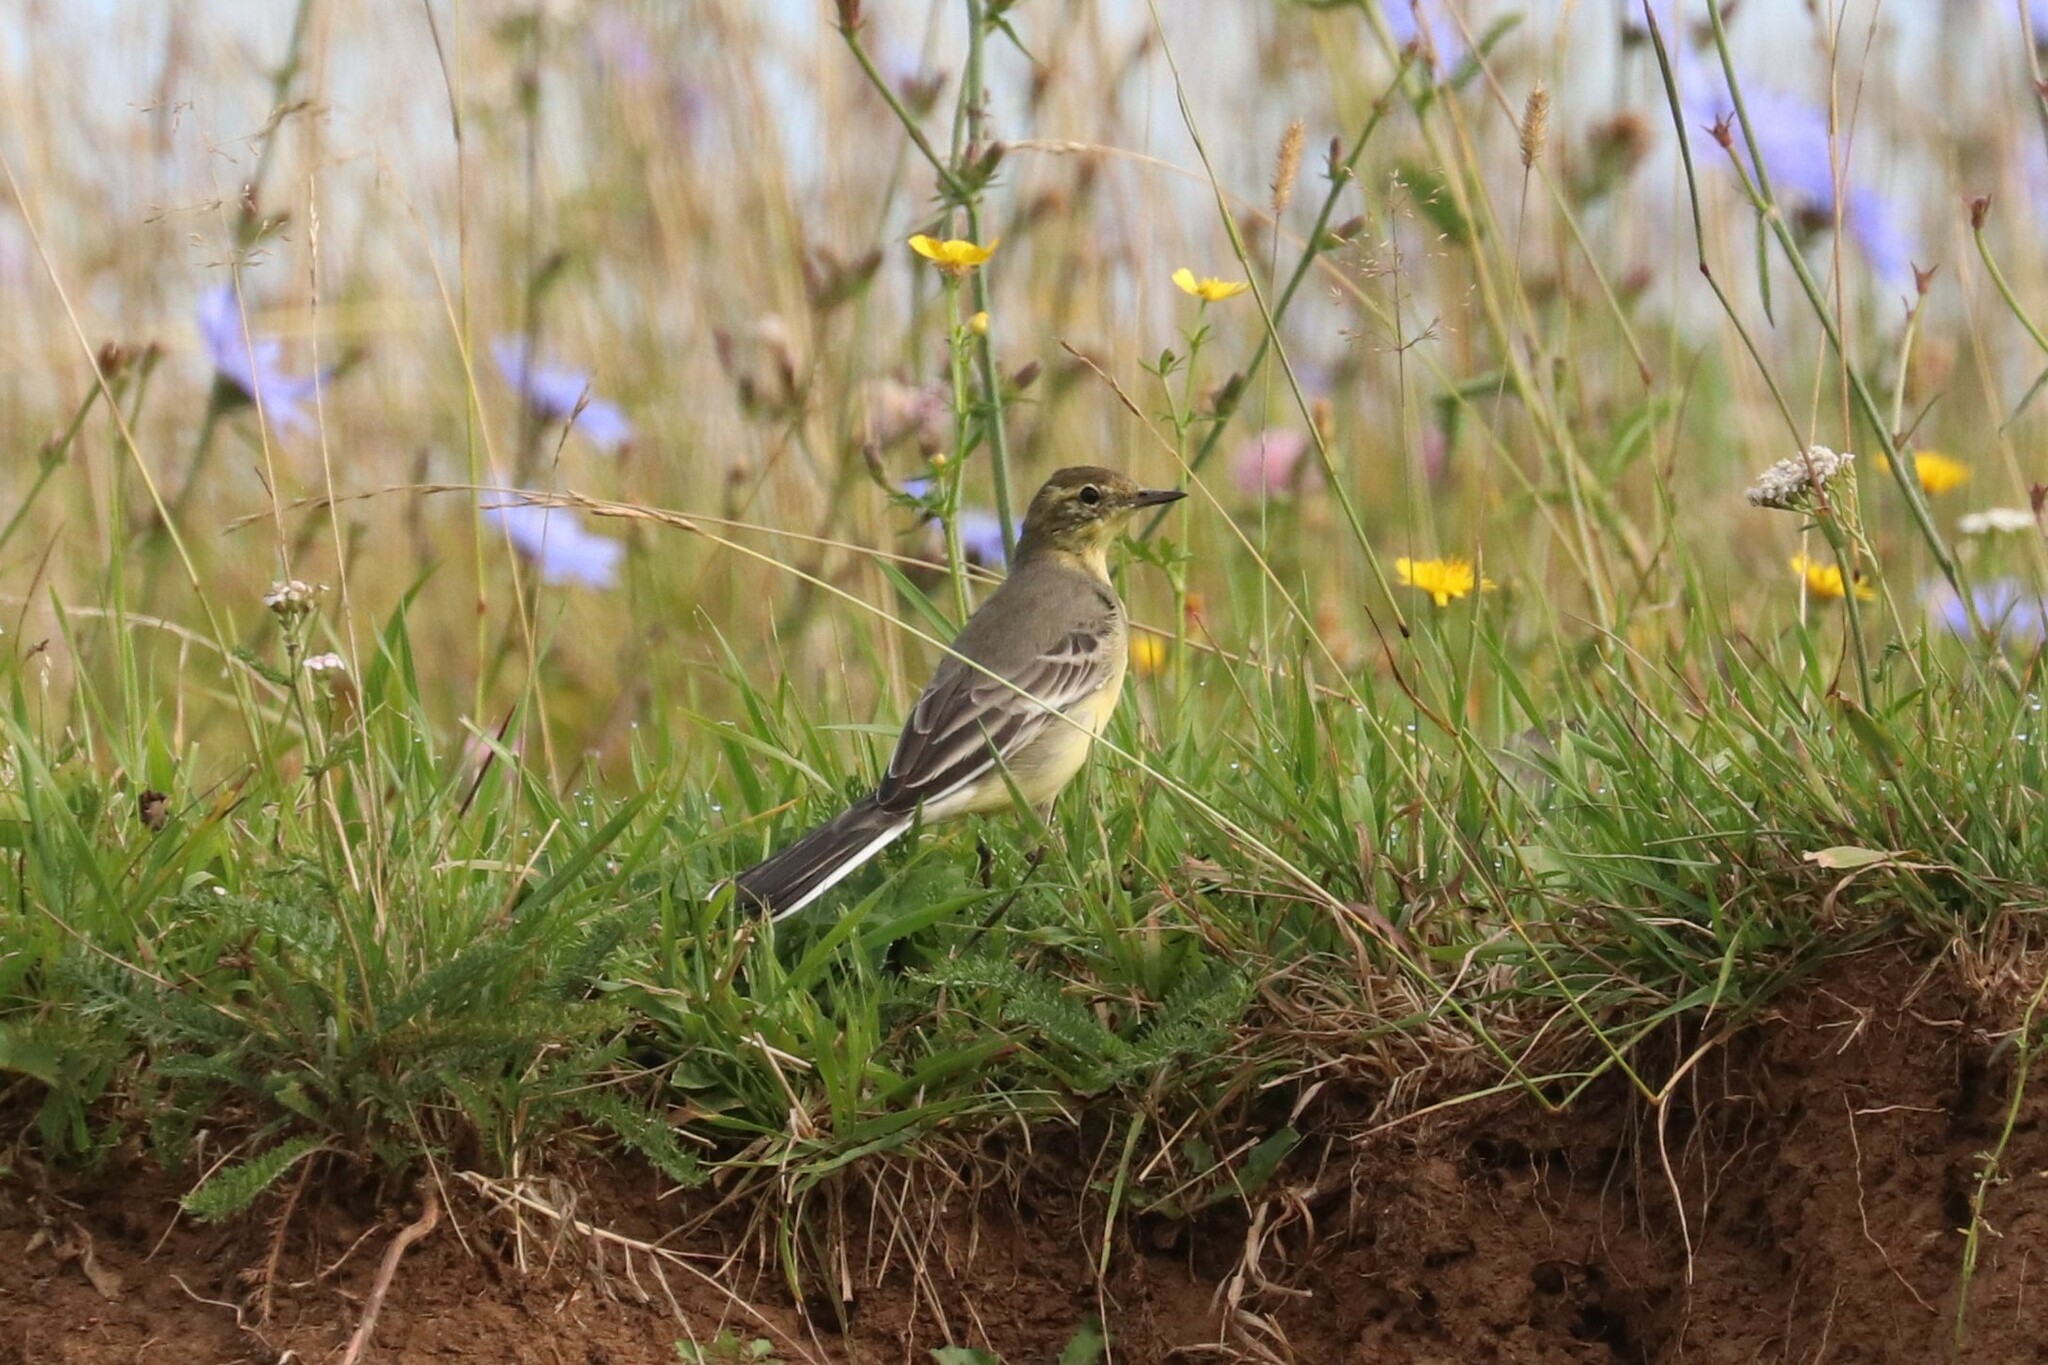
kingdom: Animalia
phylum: Chordata
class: Aves
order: Passeriformes
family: Motacillidae
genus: Motacilla
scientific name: Motacilla citreola
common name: Citrine wagtail
